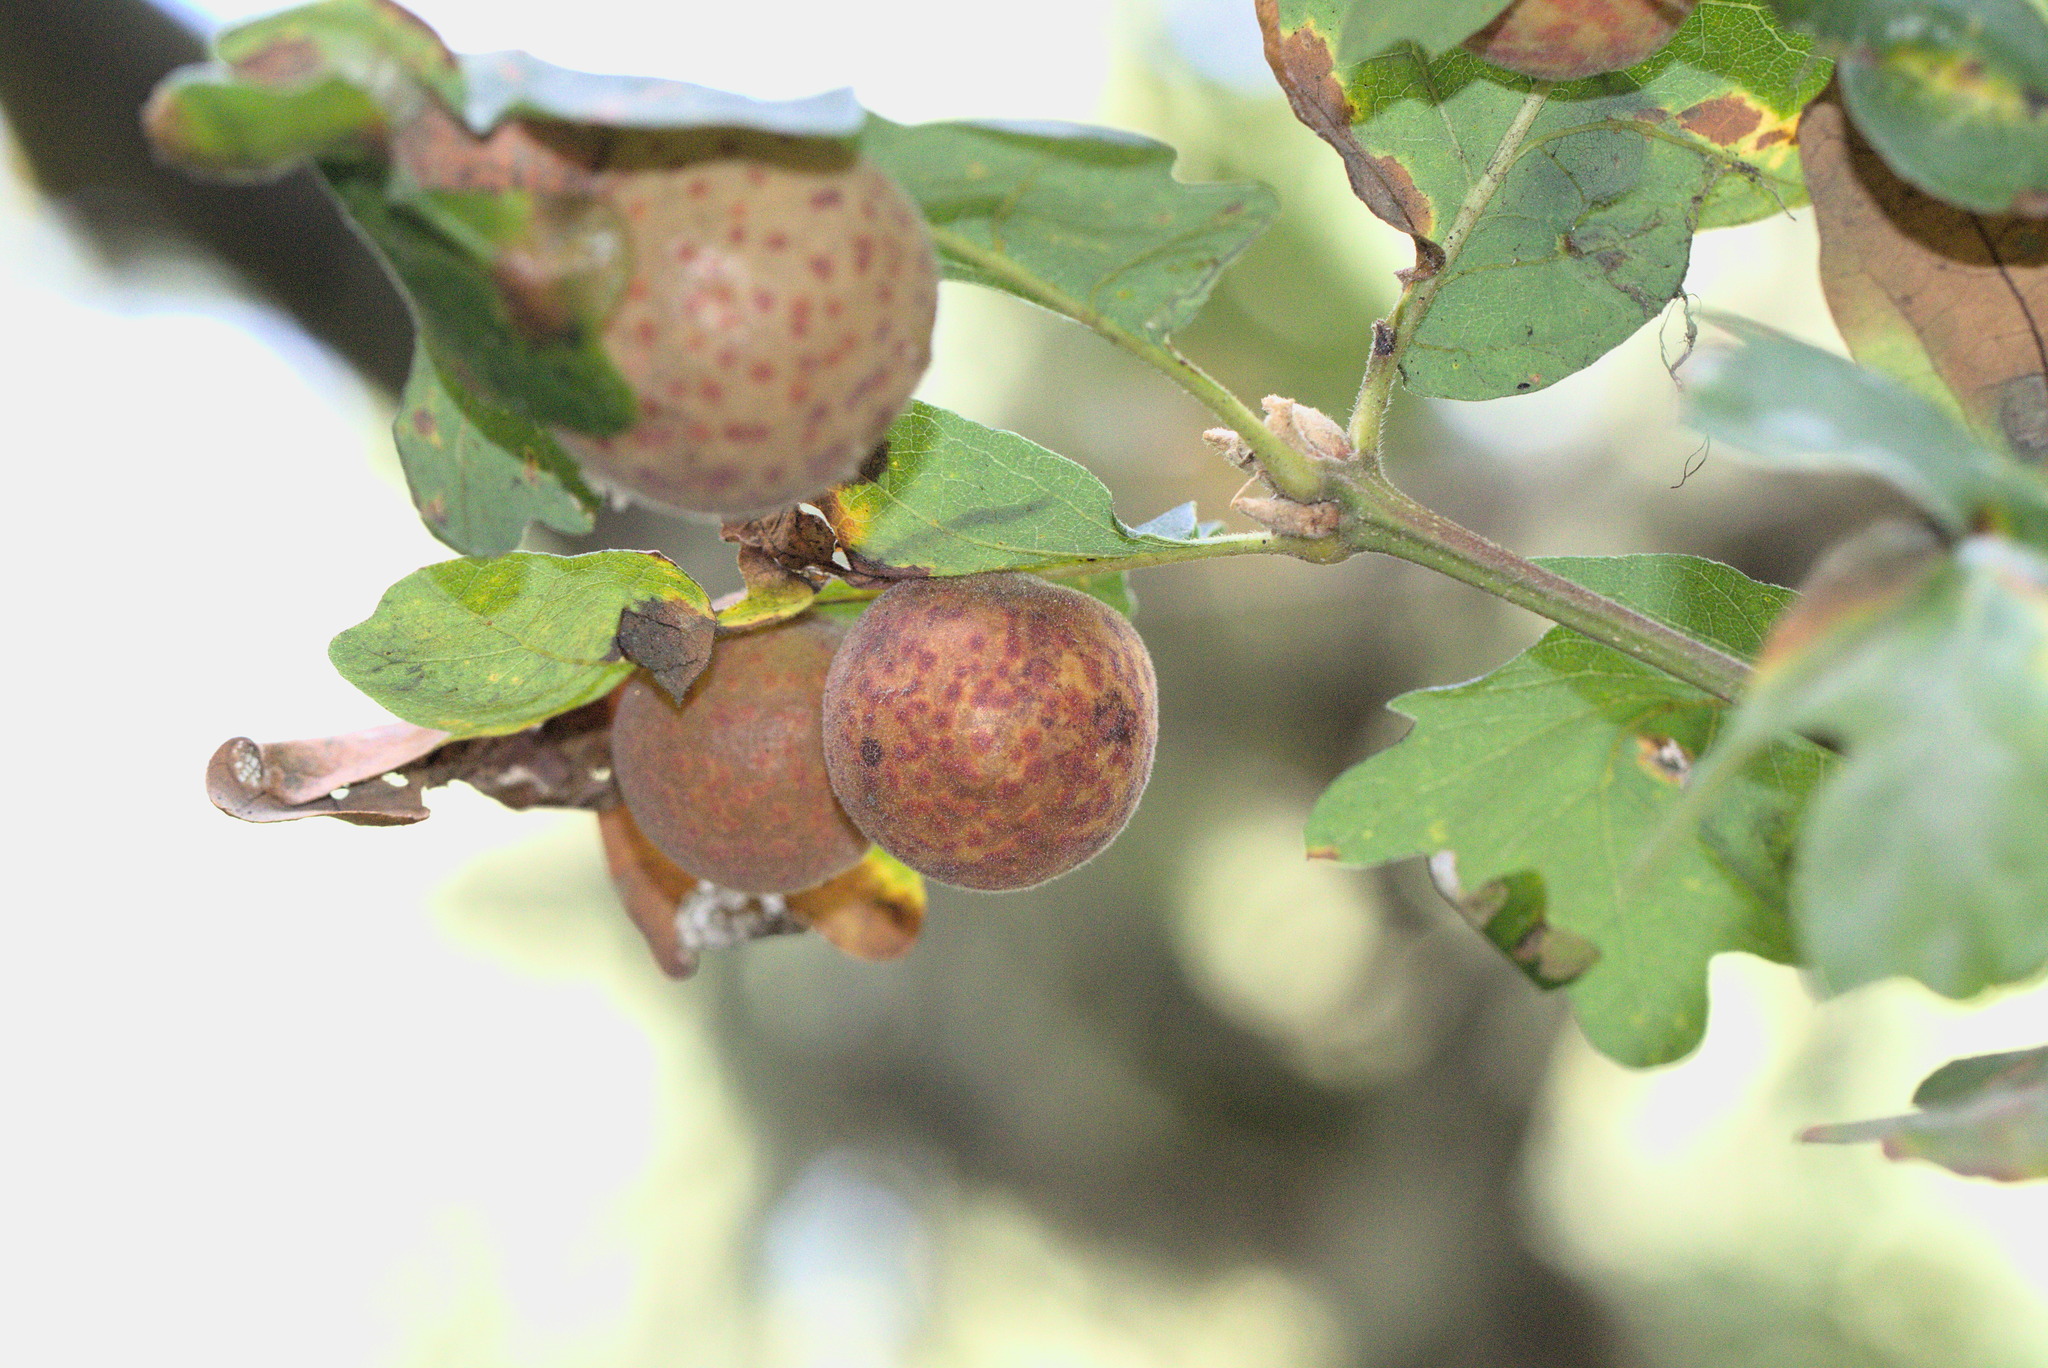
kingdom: Animalia
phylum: Arthropoda
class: Insecta
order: Hymenoptera
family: Cynipidae
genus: Cynips
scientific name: Cynips
